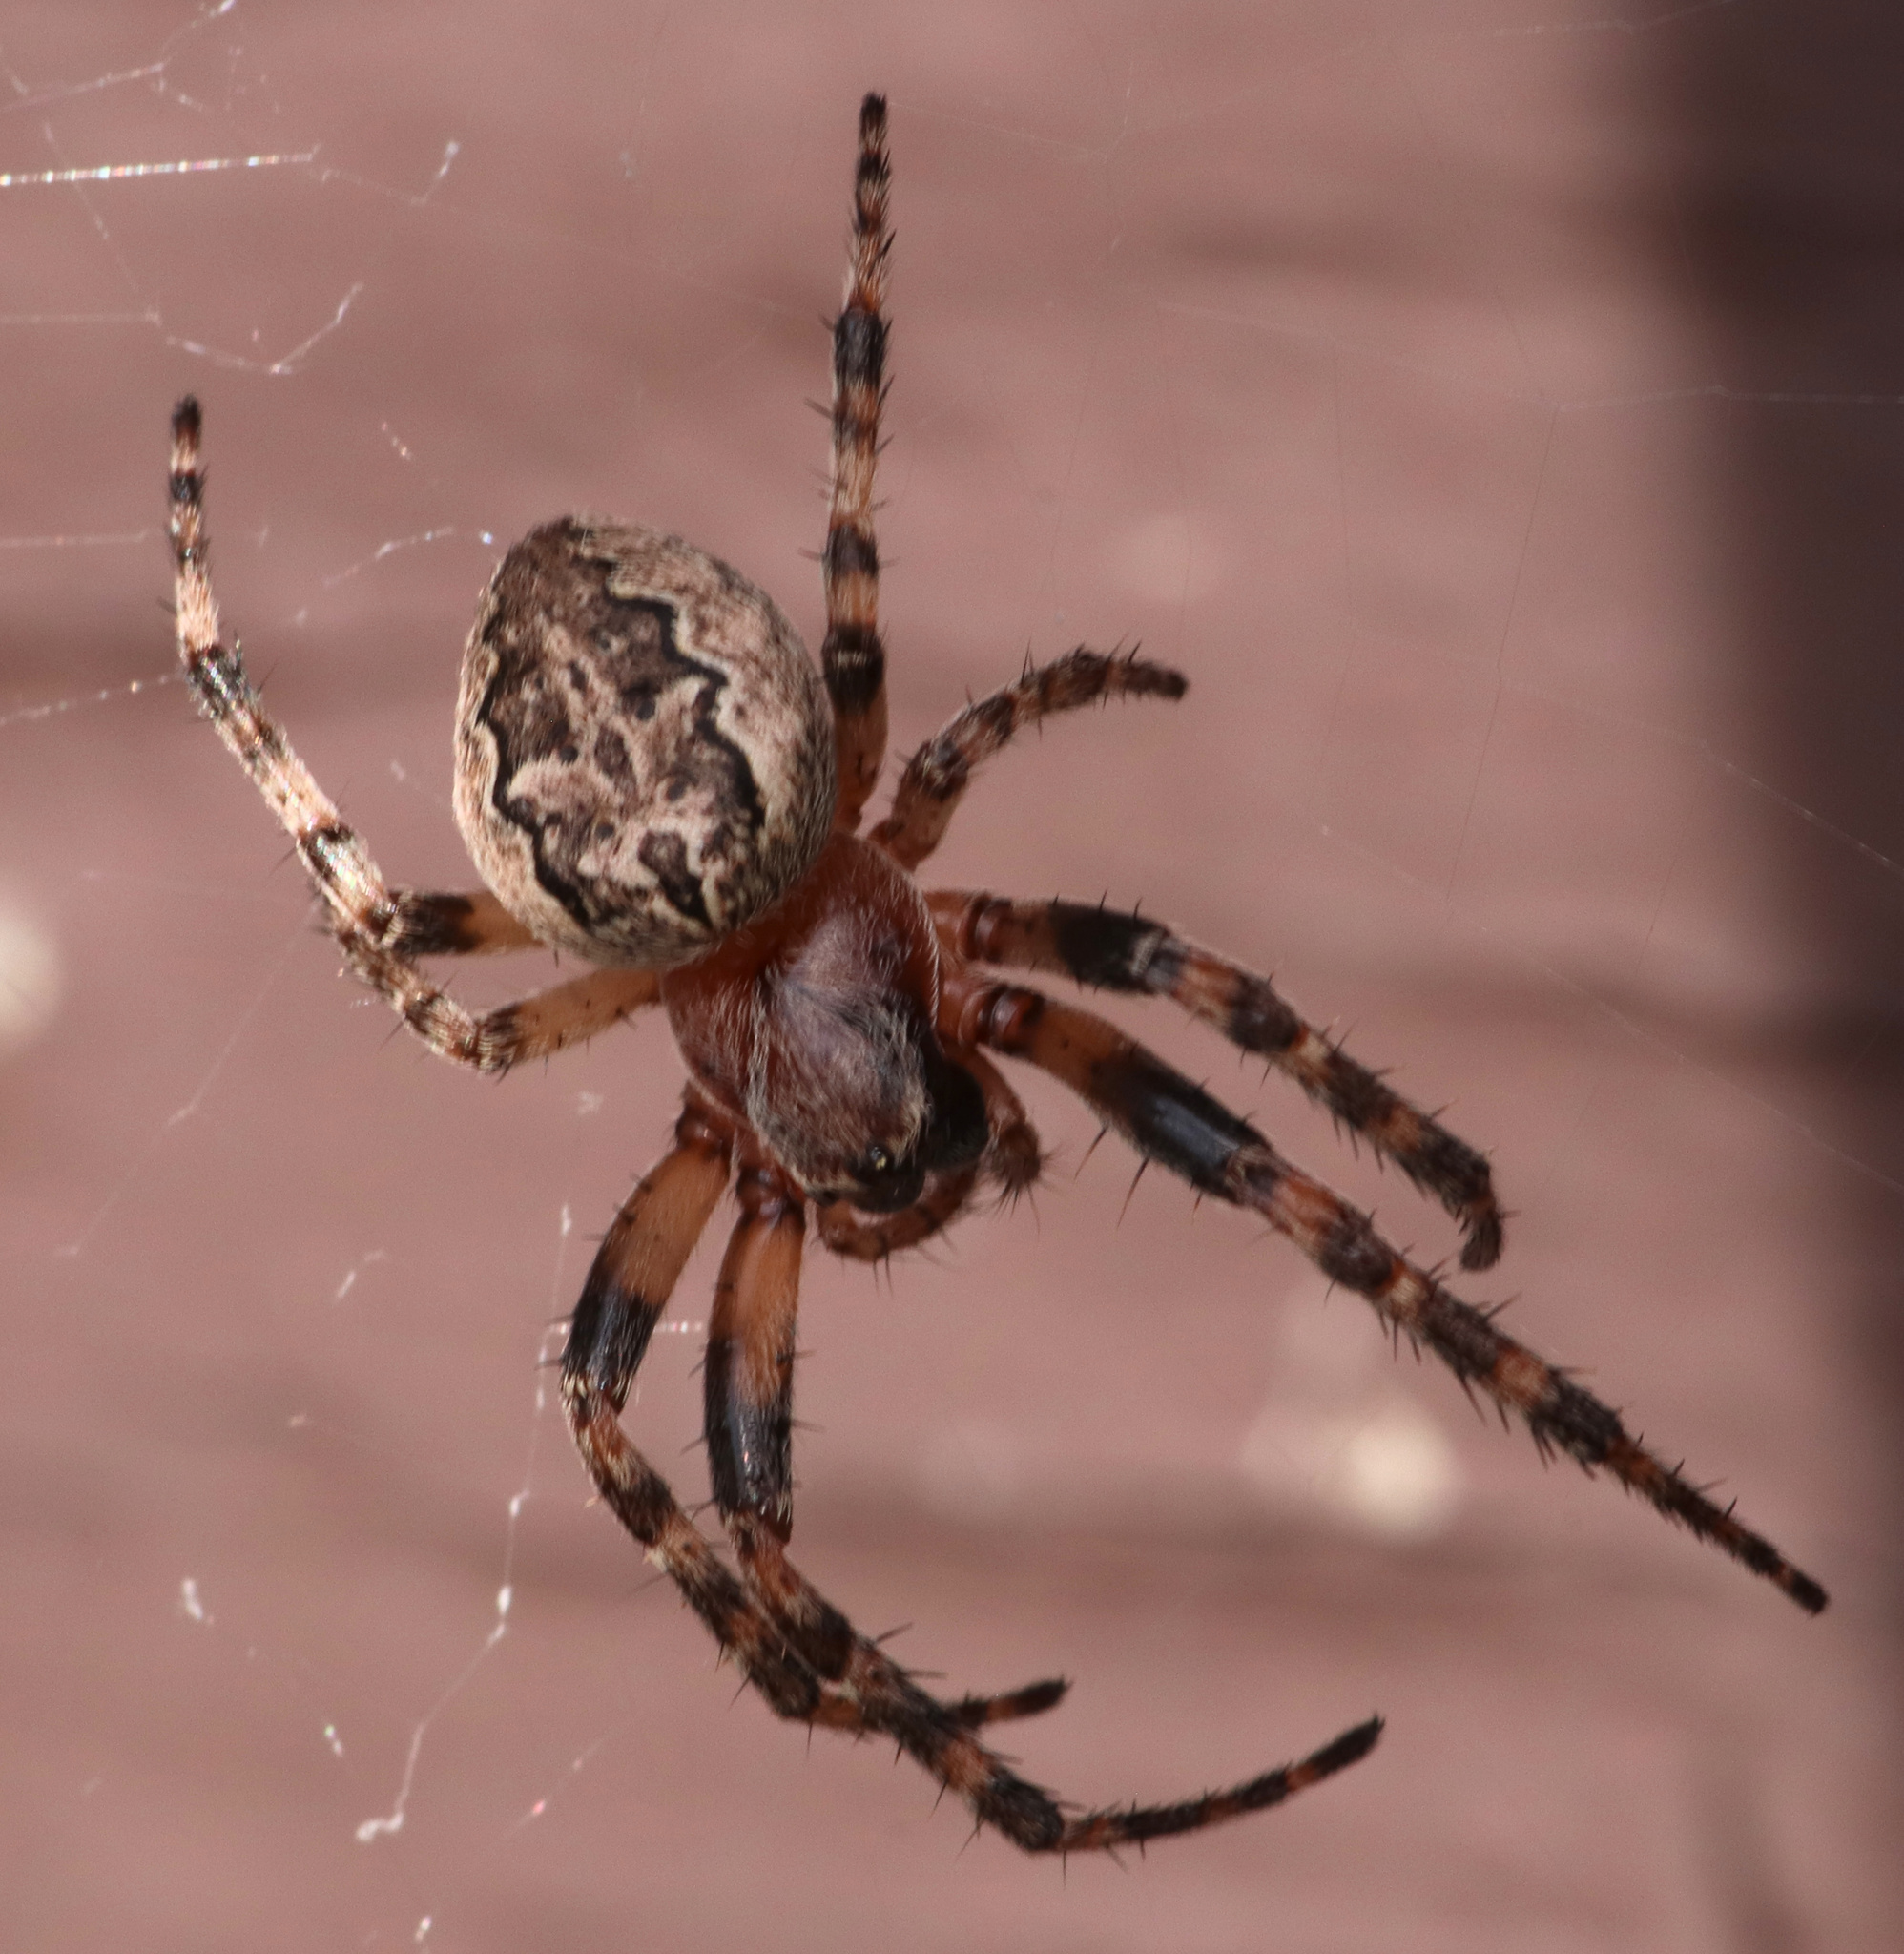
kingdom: Animalia
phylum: Arthropoda
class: Arachnida
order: Araneae
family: Araneidae
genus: Larinioides
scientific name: Larinioides patagiatus
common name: Ornamental orbweaver
